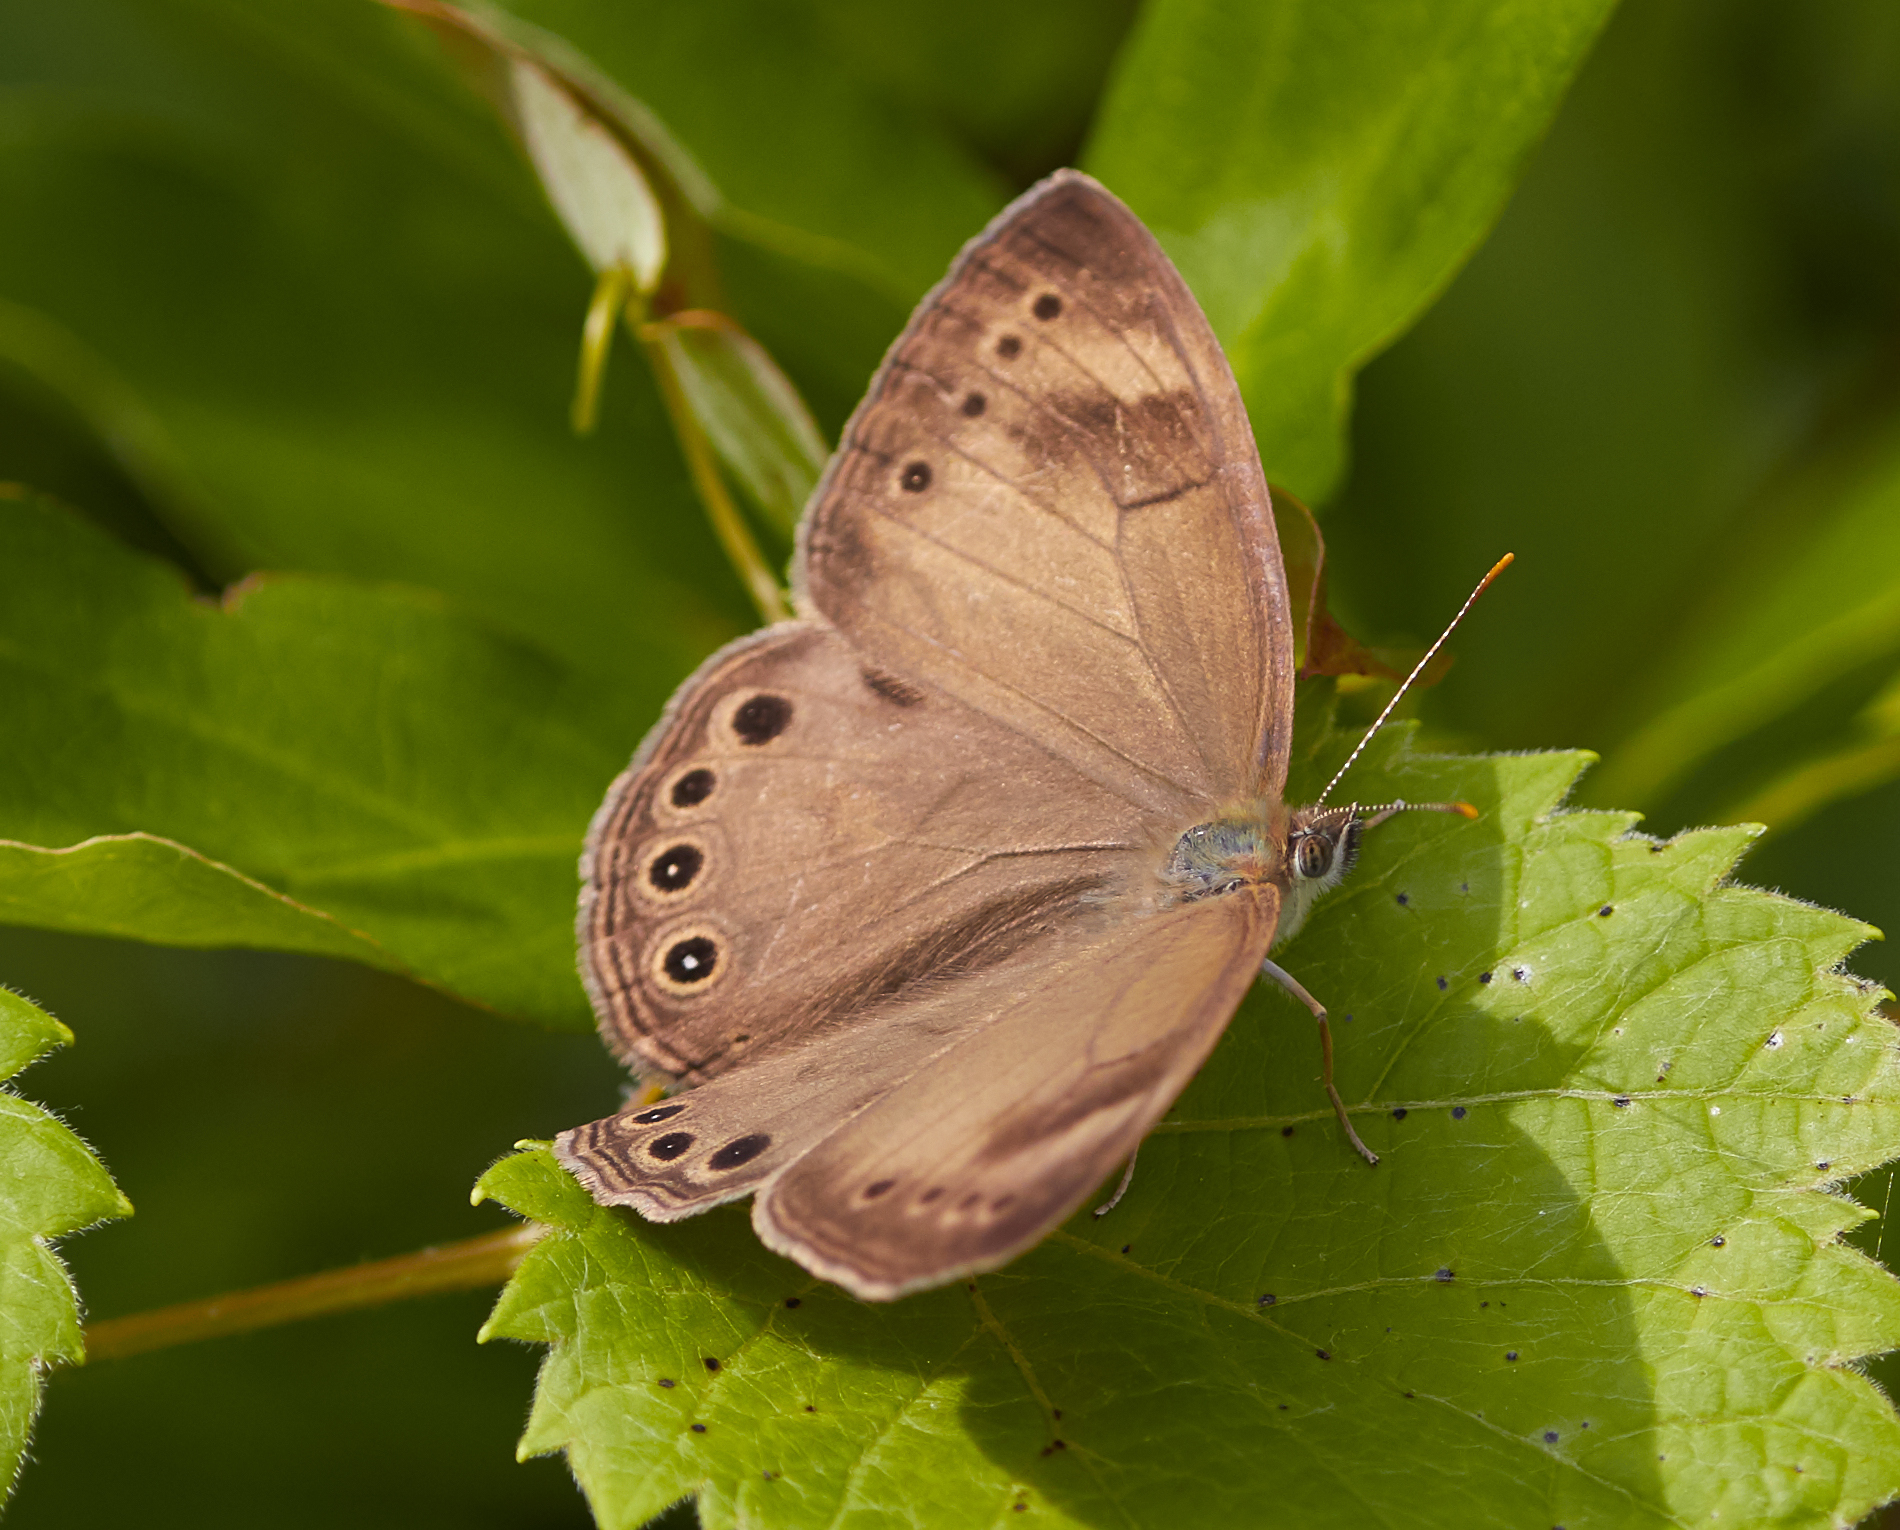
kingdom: Animalia
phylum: Arthropoda
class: Insecta
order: Lepidoptera
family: Nymphalidae
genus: Lethe
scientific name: Lethe eurydice
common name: Eyed brown
